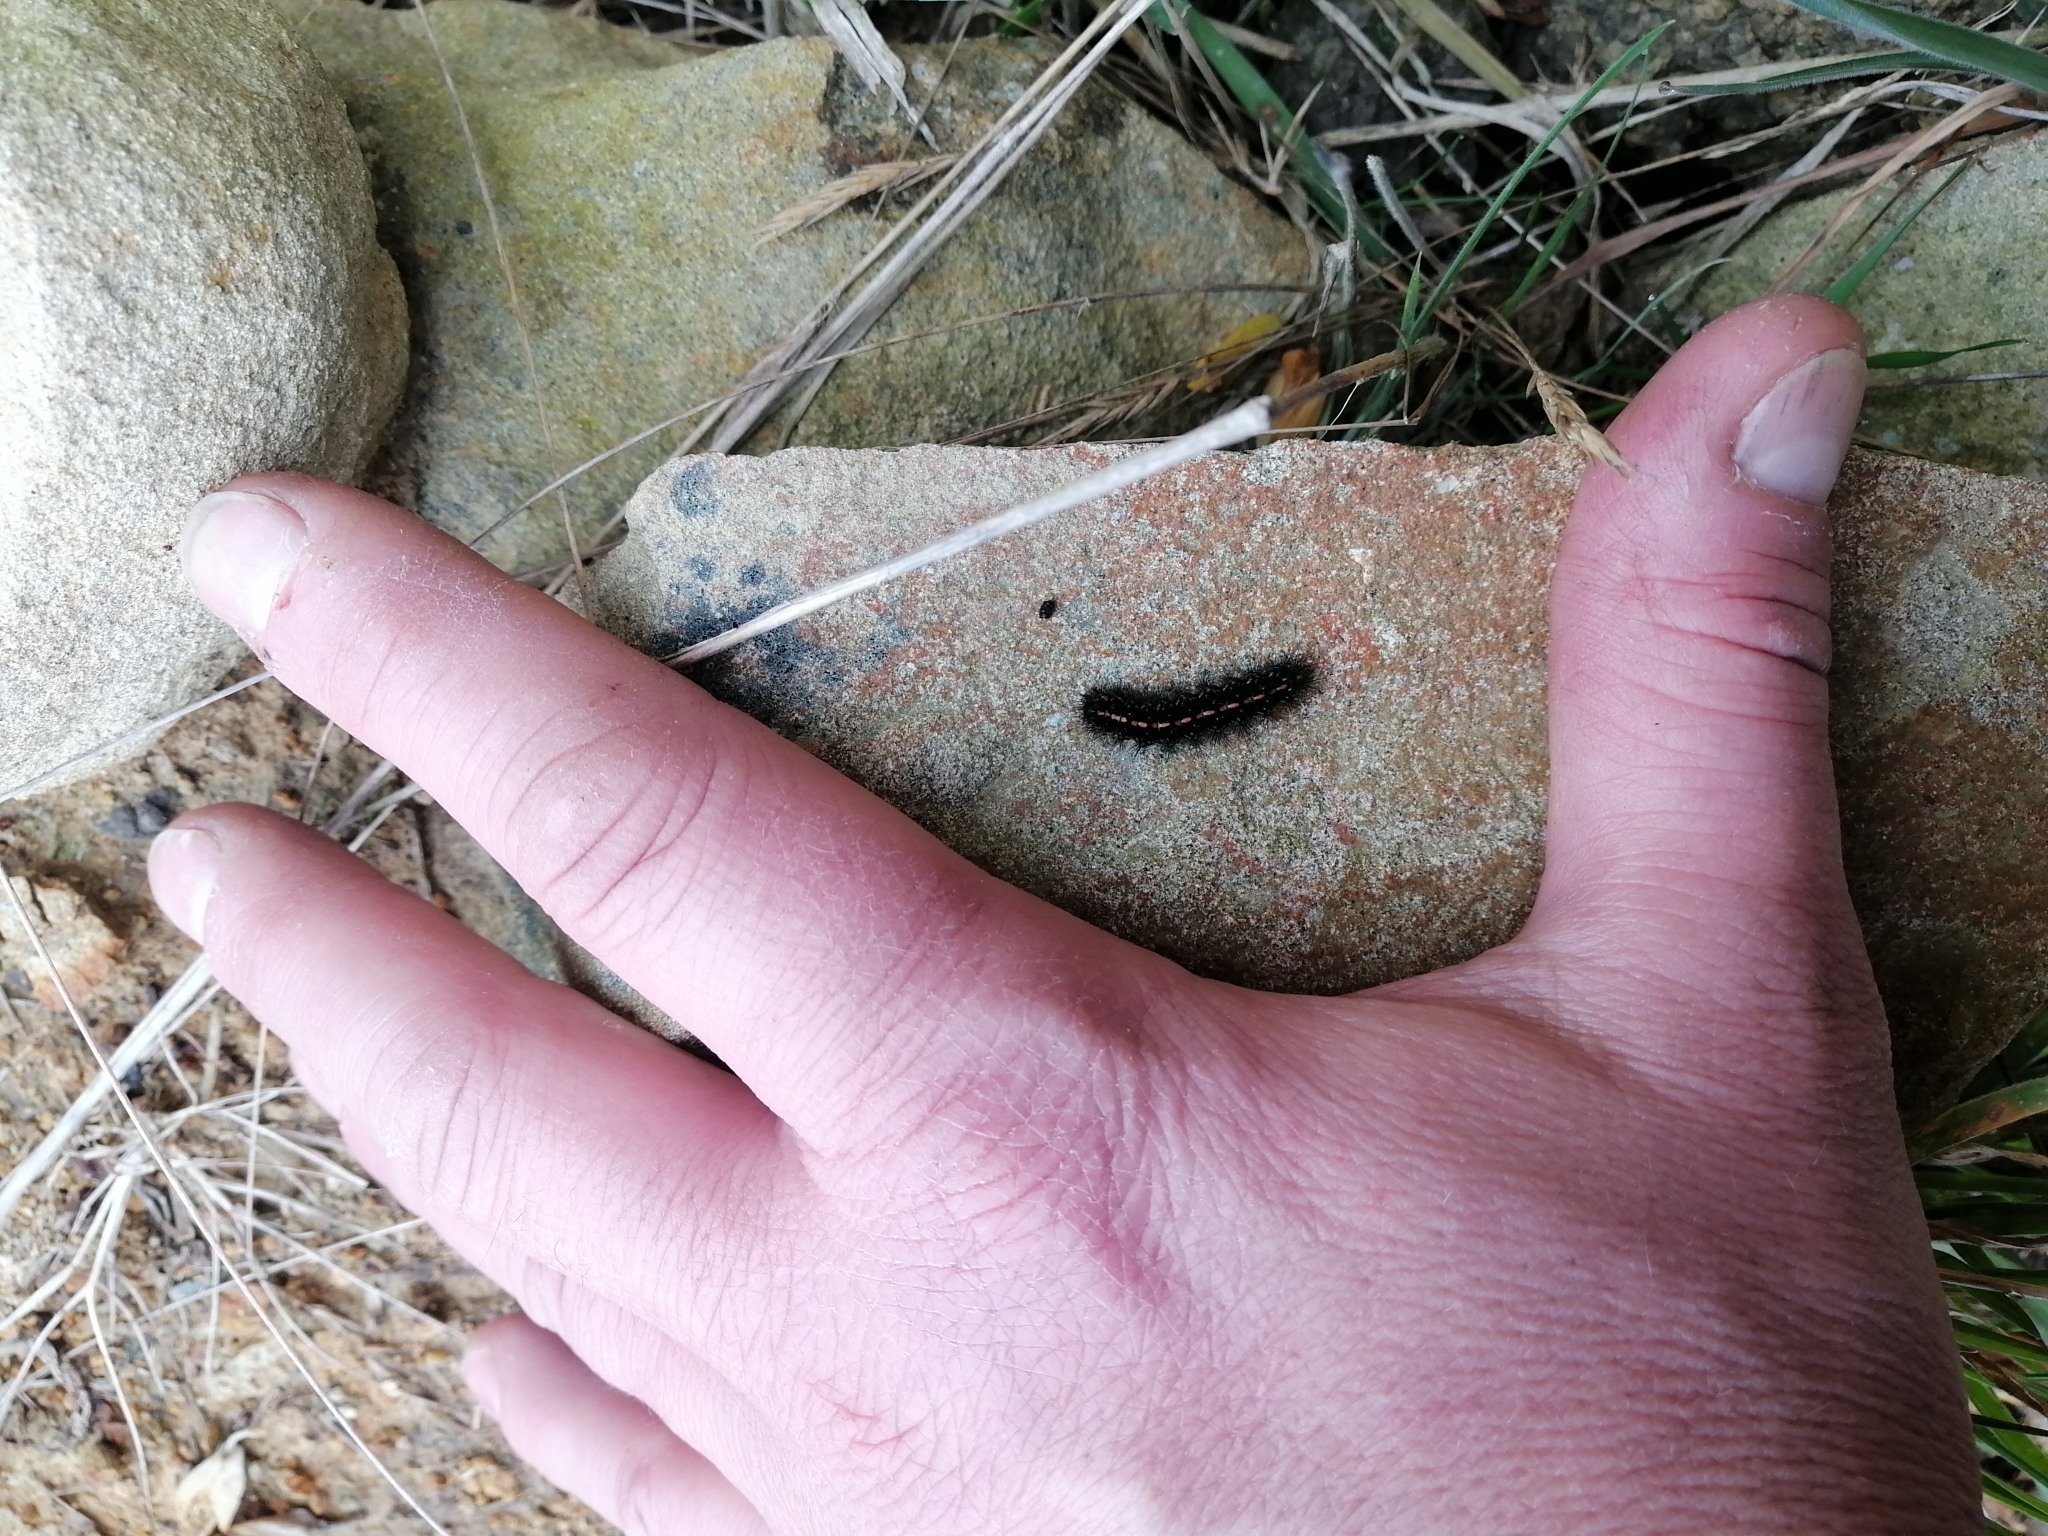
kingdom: Animalia
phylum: Arthropoda
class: Insecta
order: Lepidoptera
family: Erebidae
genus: Nyctemera
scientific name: Nyctemera annulatum
